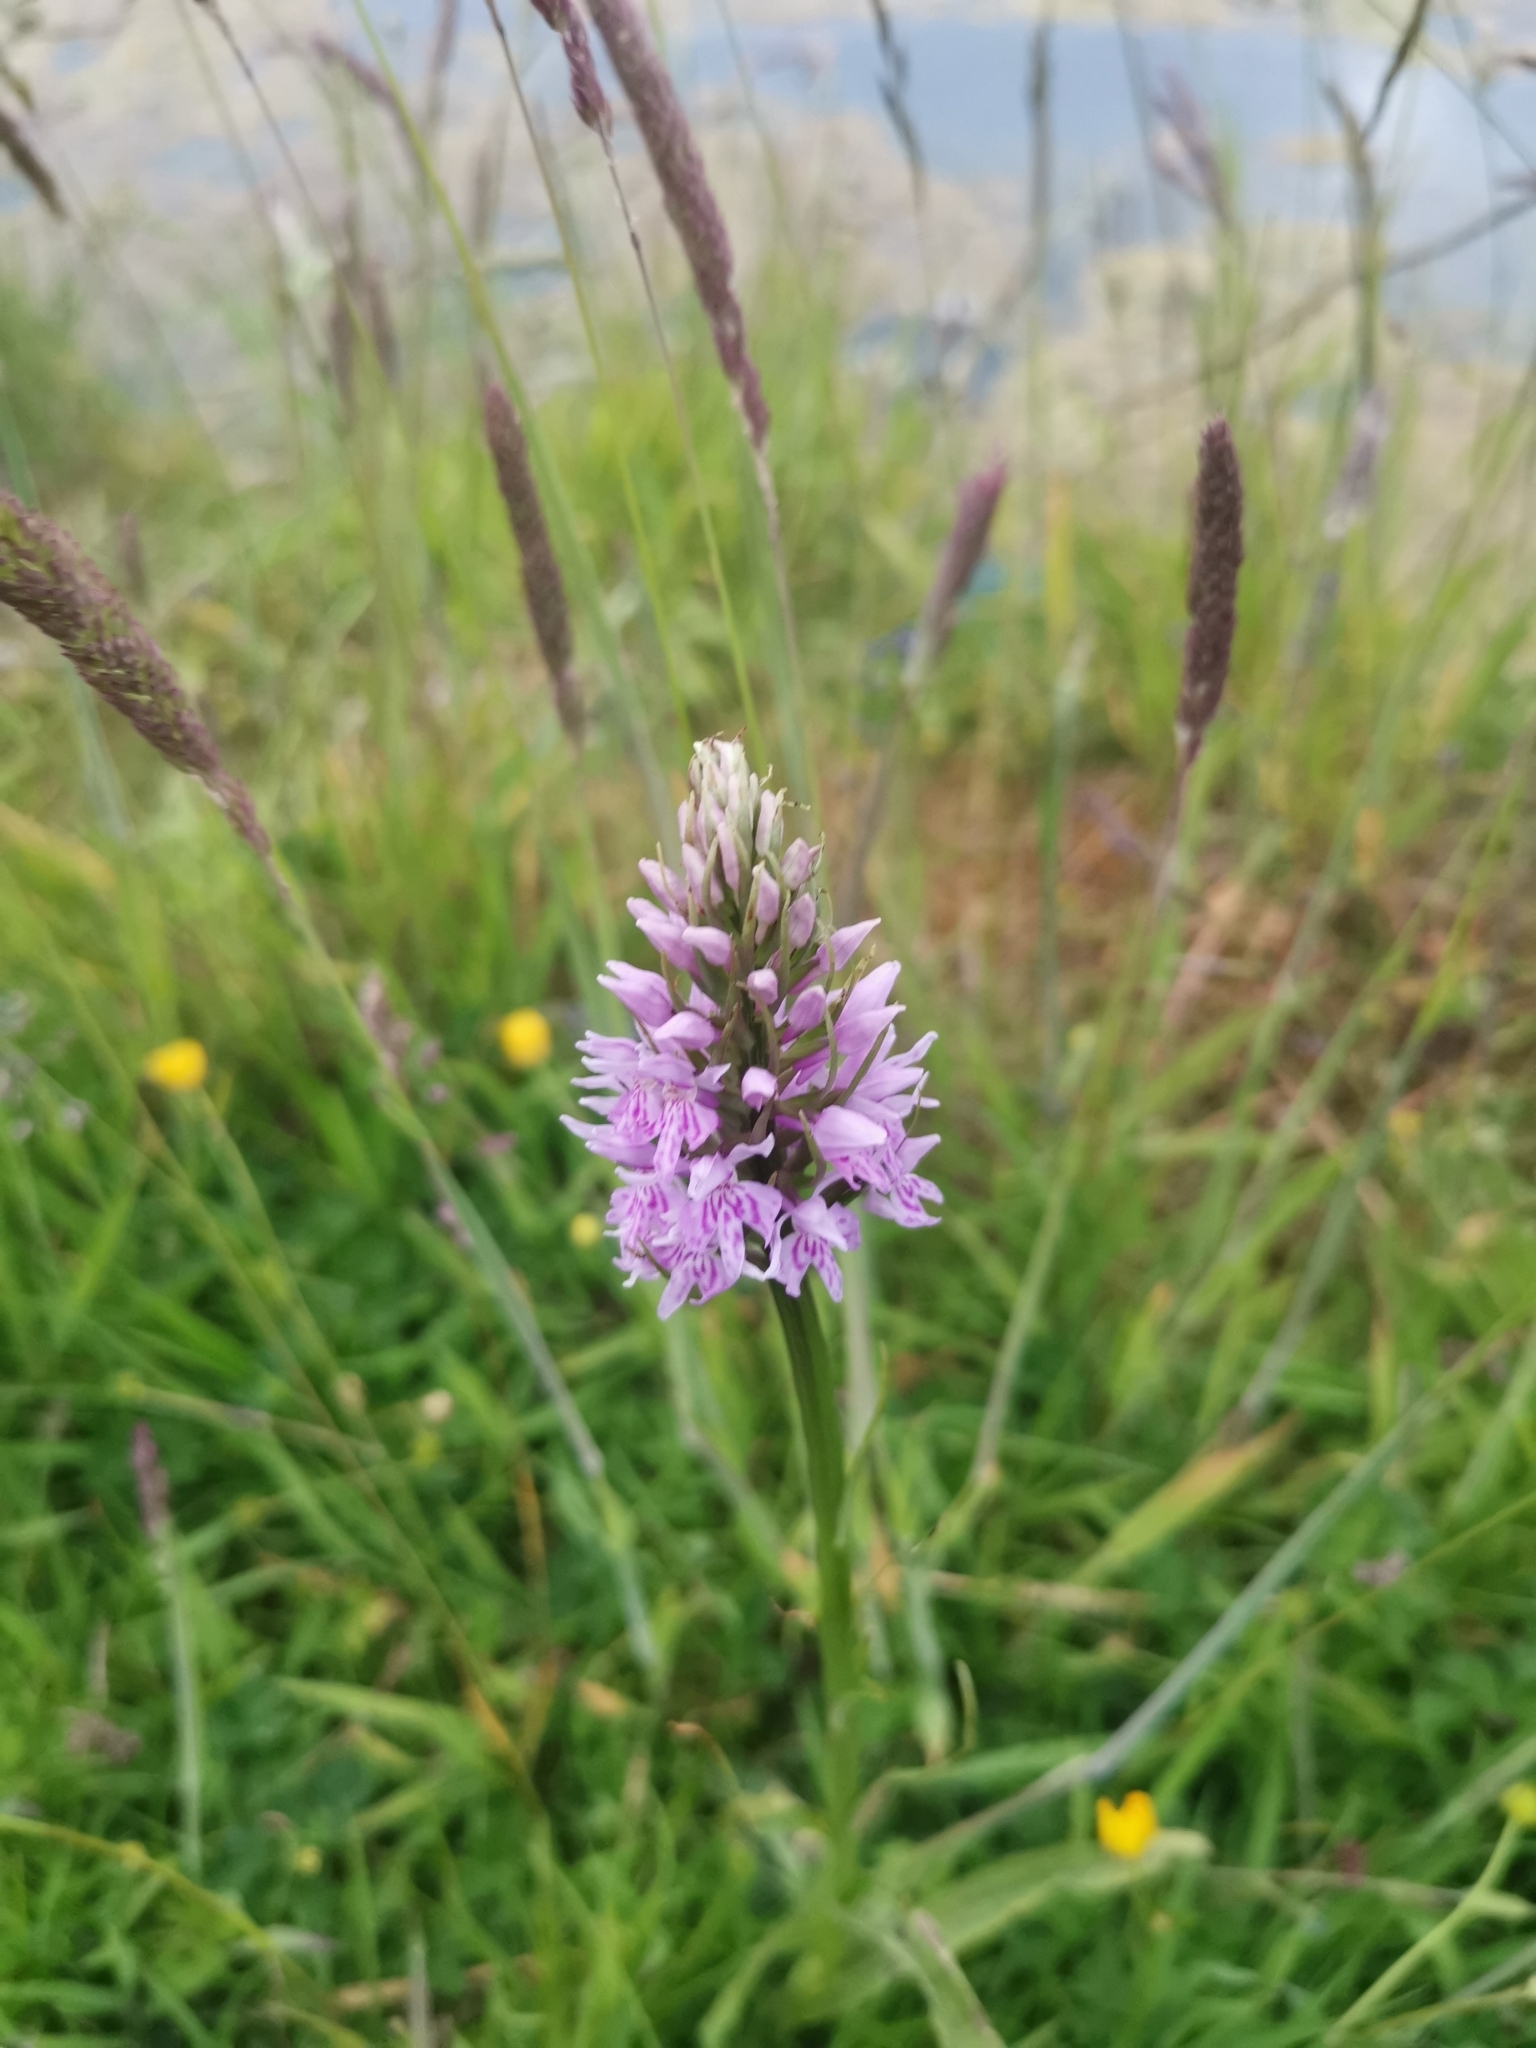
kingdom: Plantae
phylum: Tracheophyta
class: Liliopsida
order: Asparagales
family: Orchidaceae
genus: Dactylorhiza
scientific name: Dactylorhiza maculata
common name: Heath spotted-orchid
